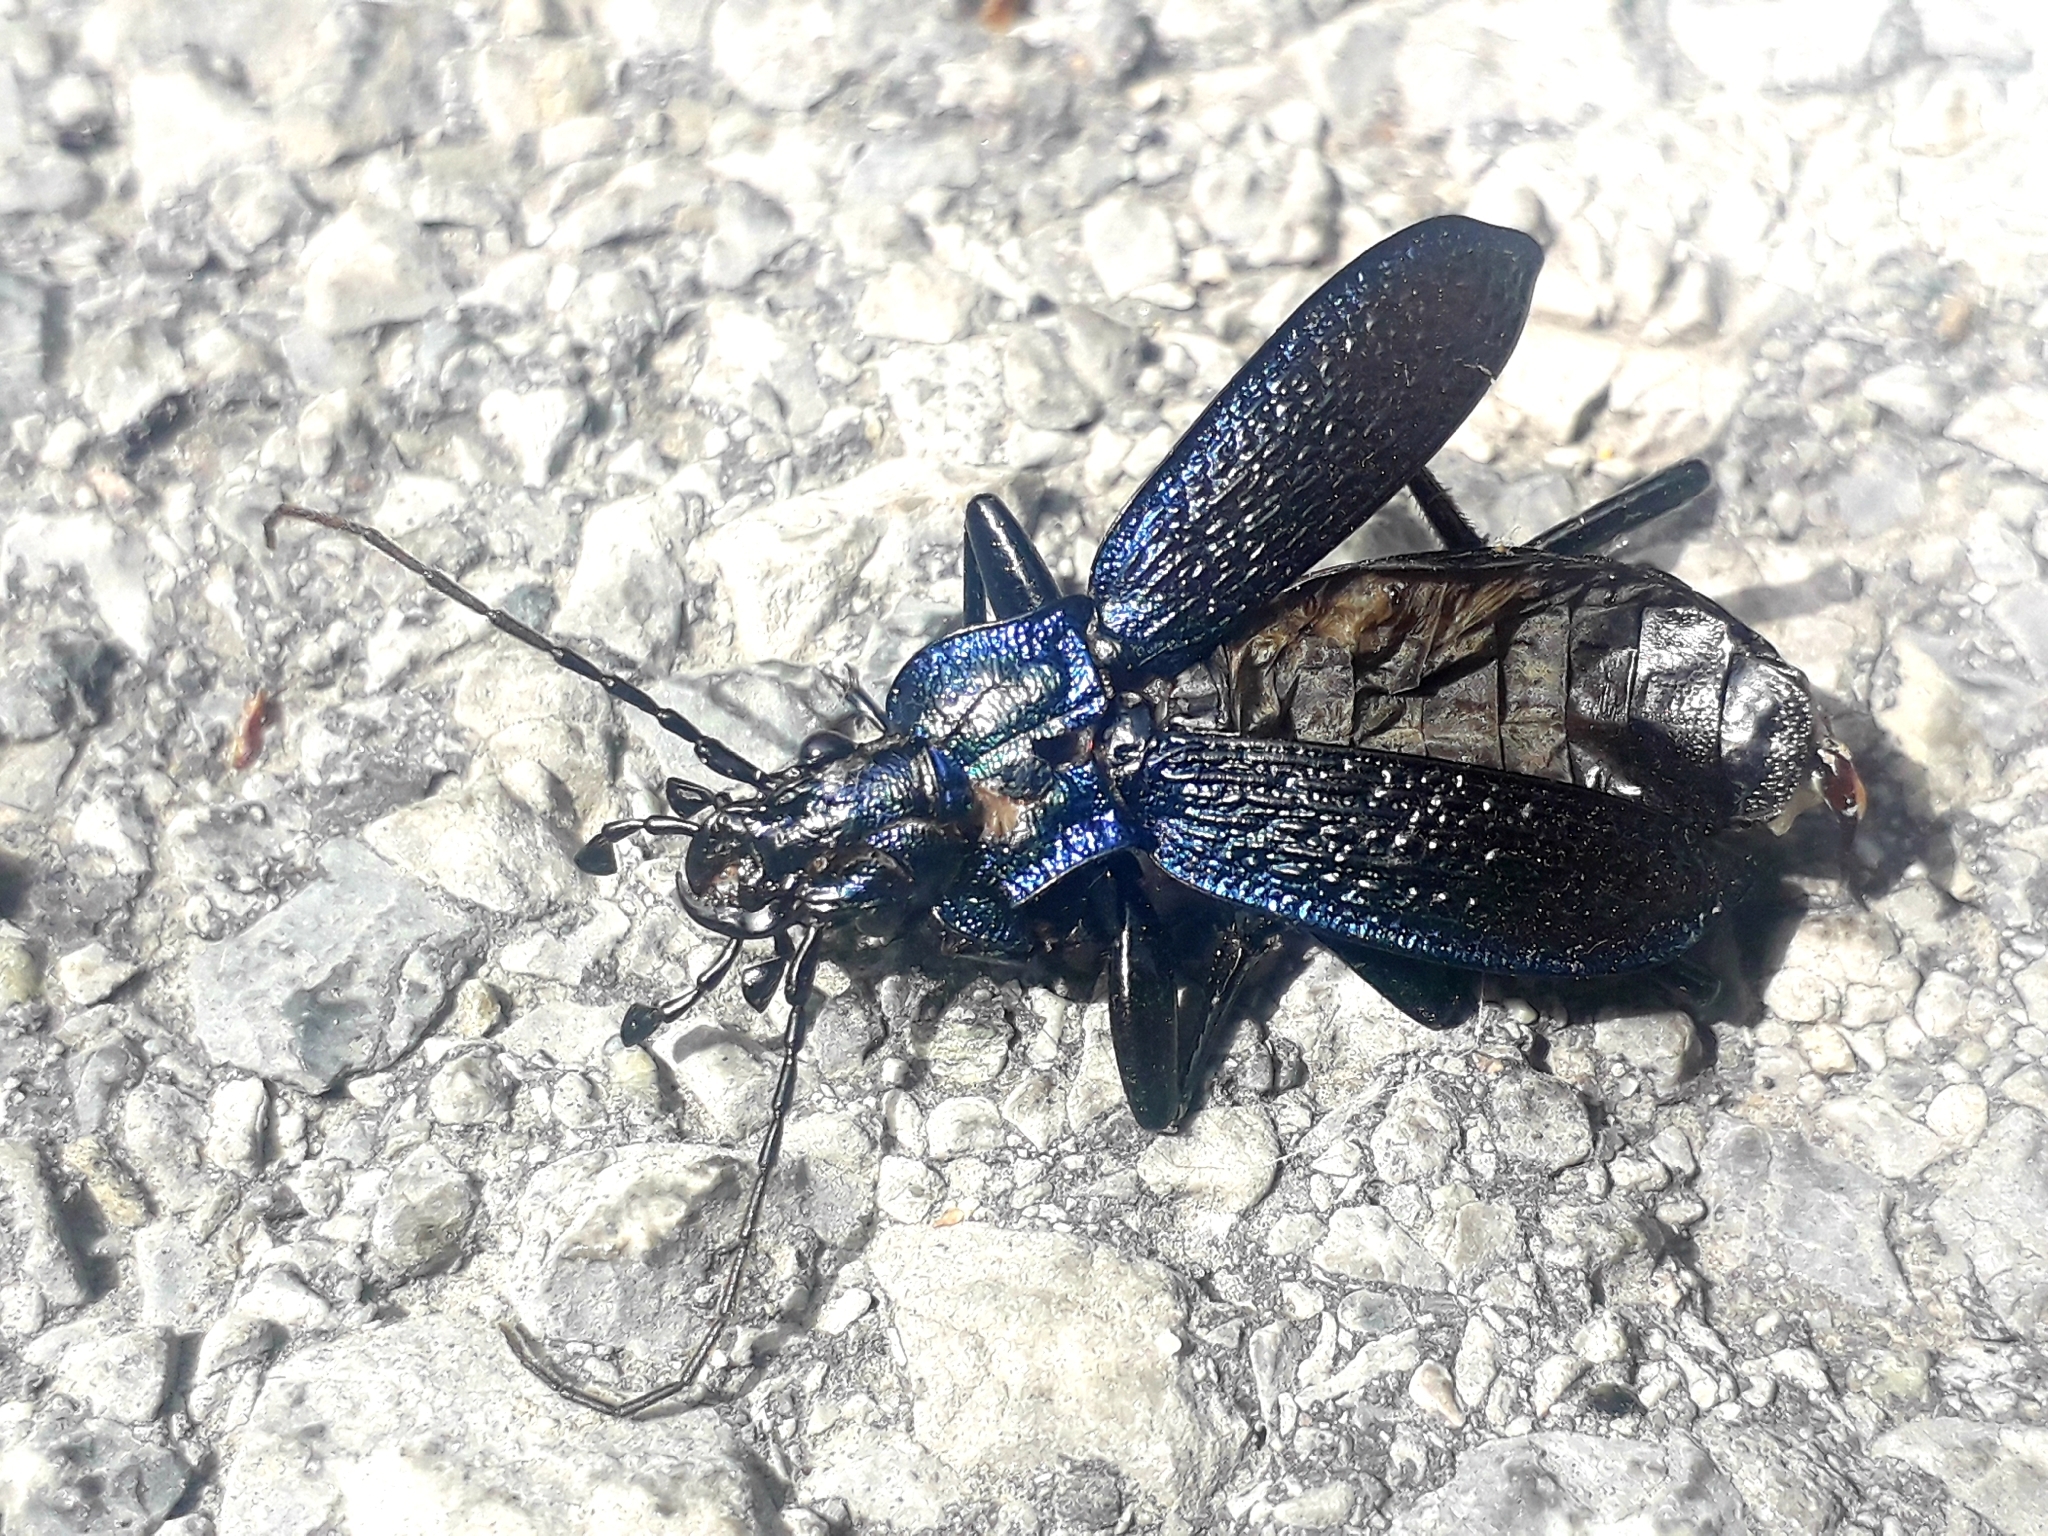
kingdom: Animalia
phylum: Arthropoda
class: Insecta
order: Coleoptera
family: Carabidae
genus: Carabus
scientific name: Carabus intricatus
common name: Blue ground beetle
